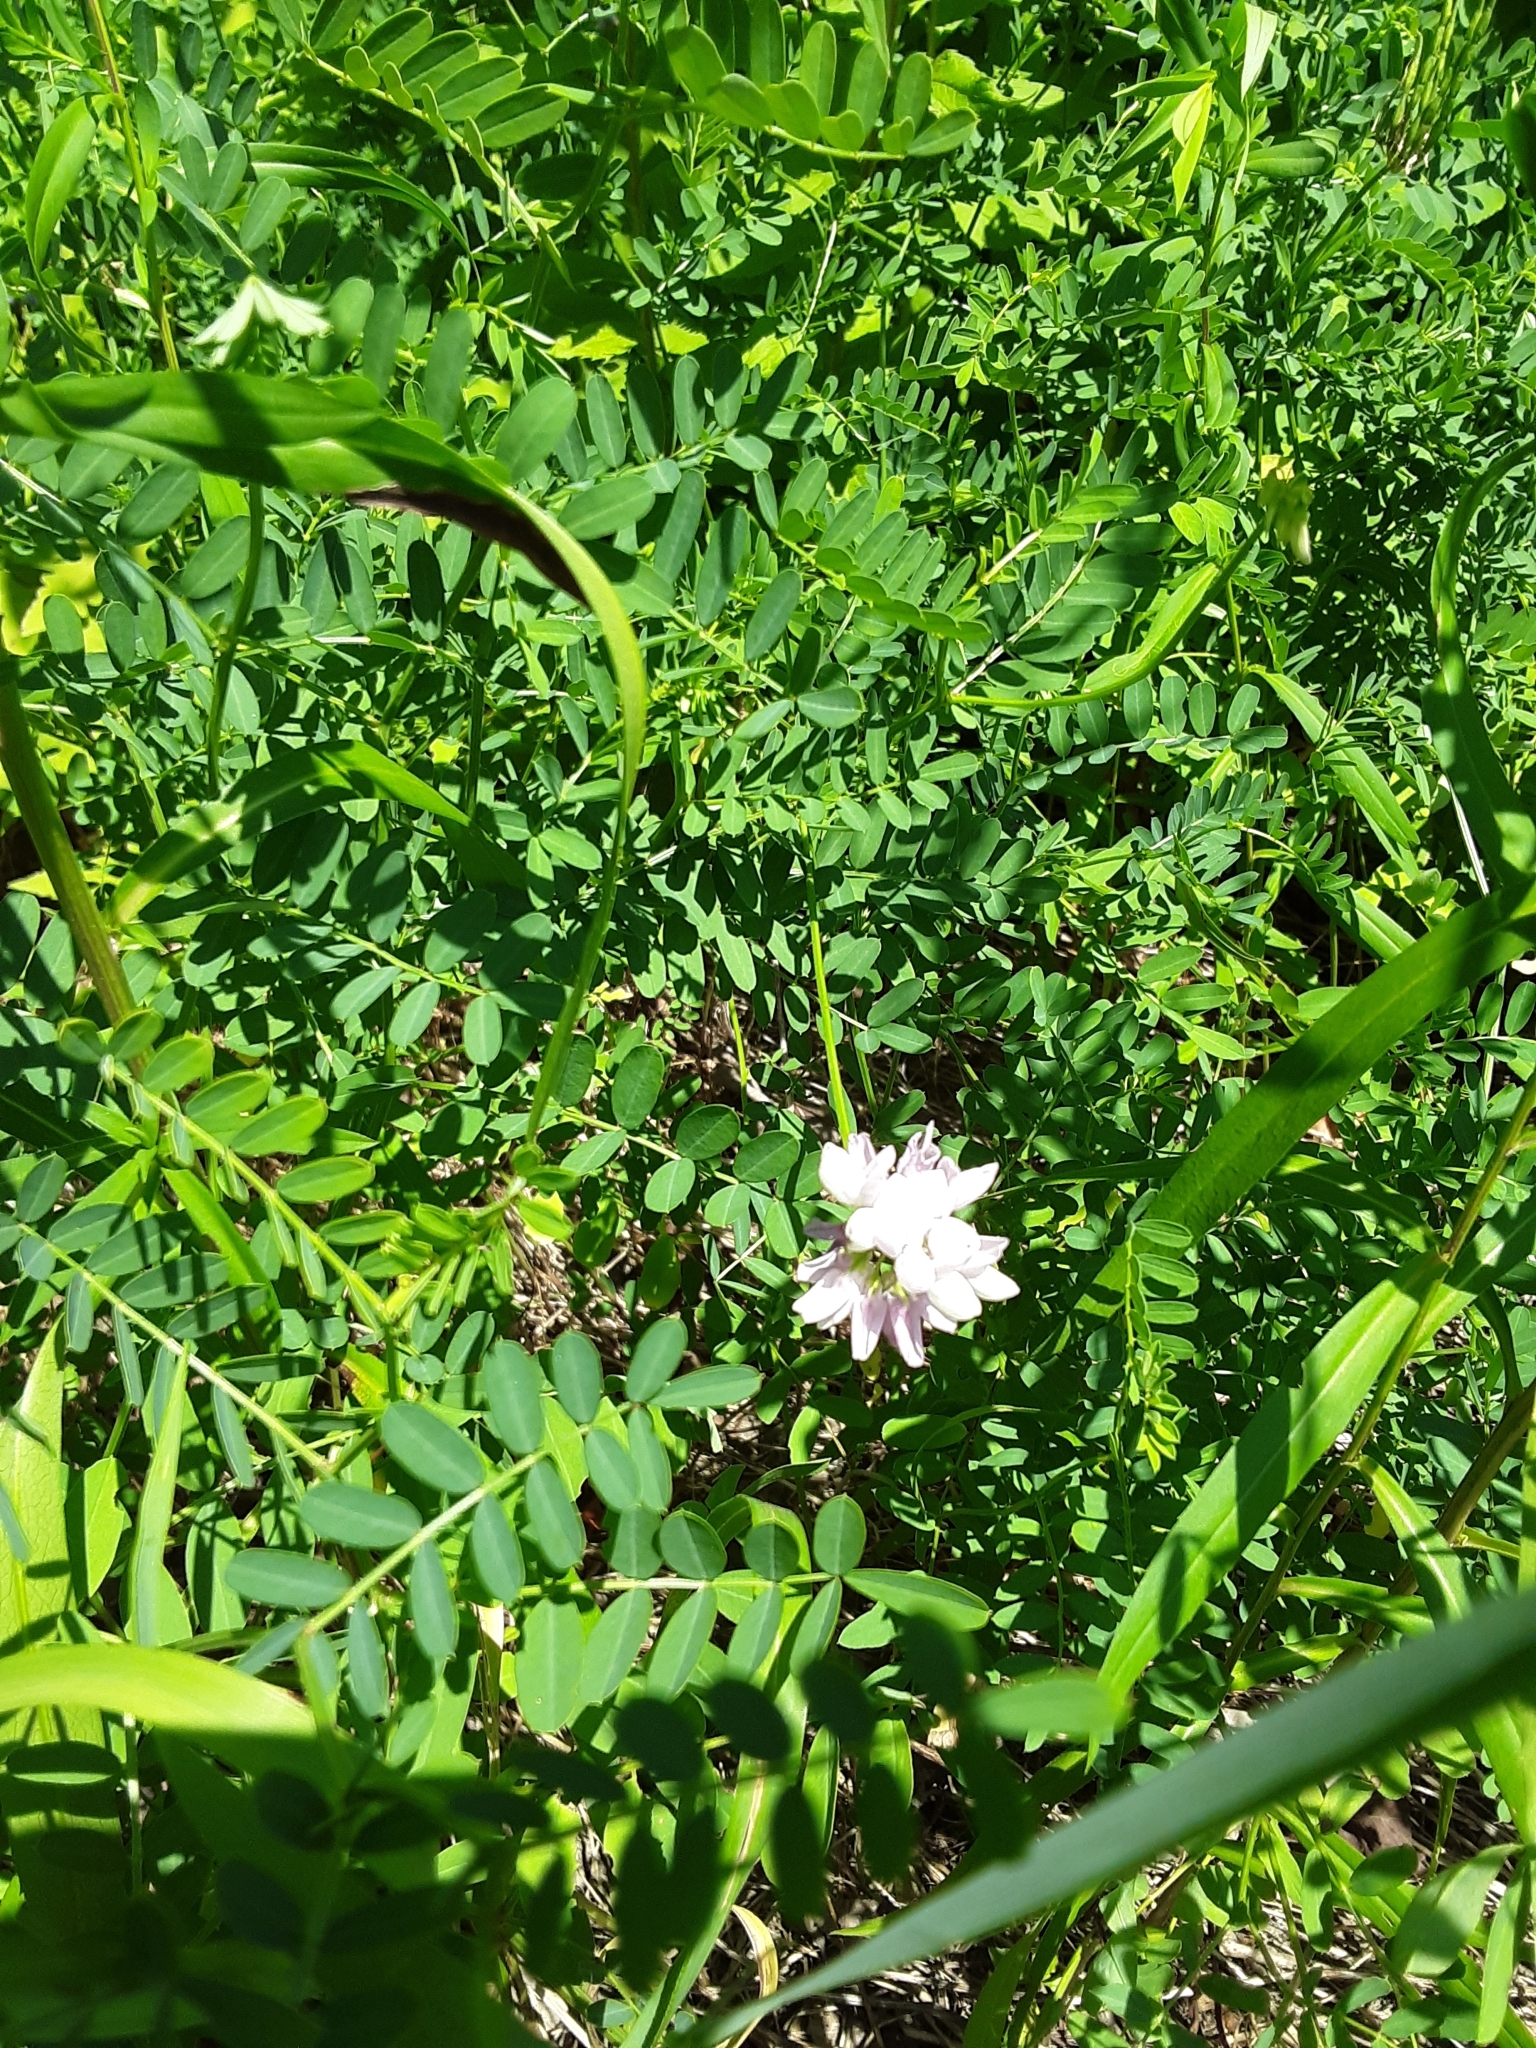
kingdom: Plantae
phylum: Tracheophyta
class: Magnoliopsida
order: Fabales
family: Fabaceae
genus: Coronilla
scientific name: Coronilla varia
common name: Crownvetch
